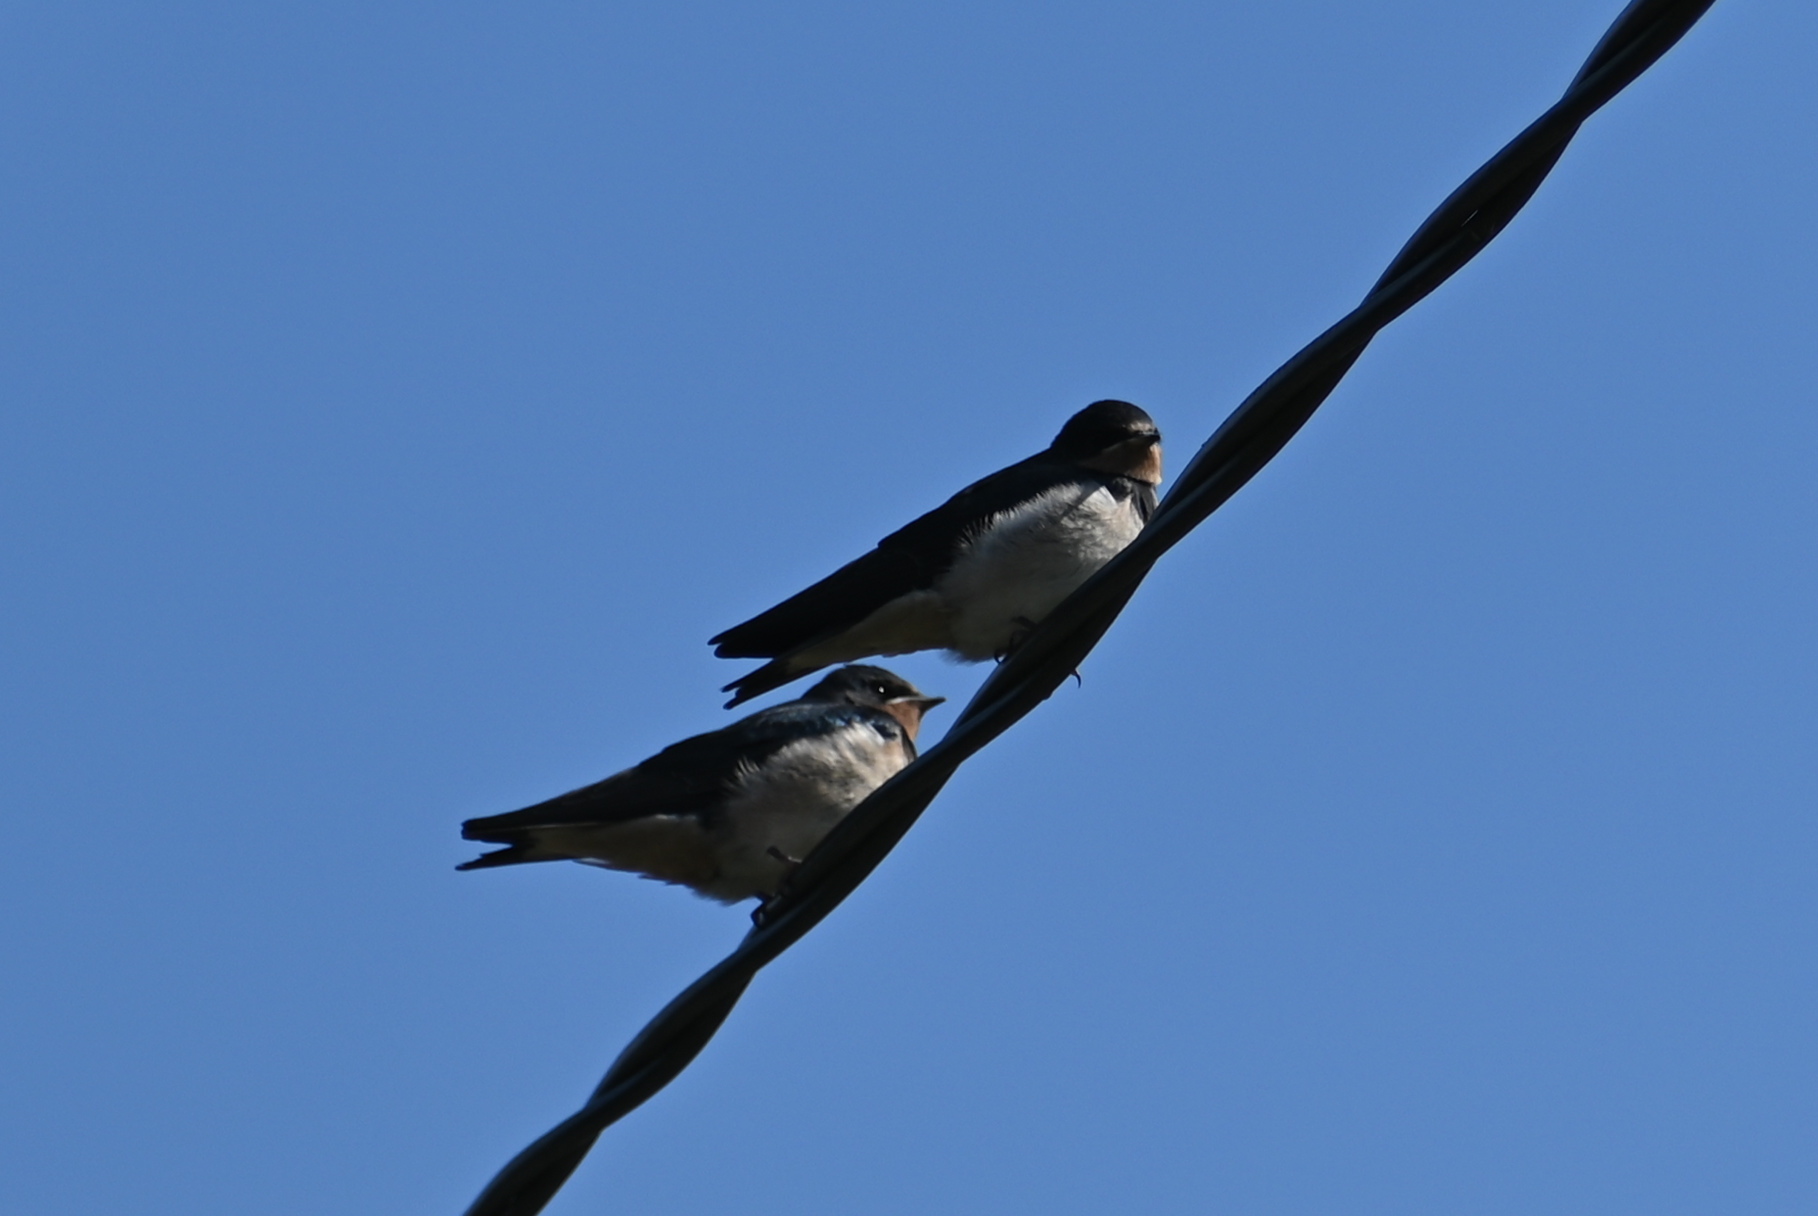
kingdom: Animalia
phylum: Chordata
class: Aves
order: Passeriformes
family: Hirundinidae
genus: Hirundo
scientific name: Hirundo rustica
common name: Barn swallow
